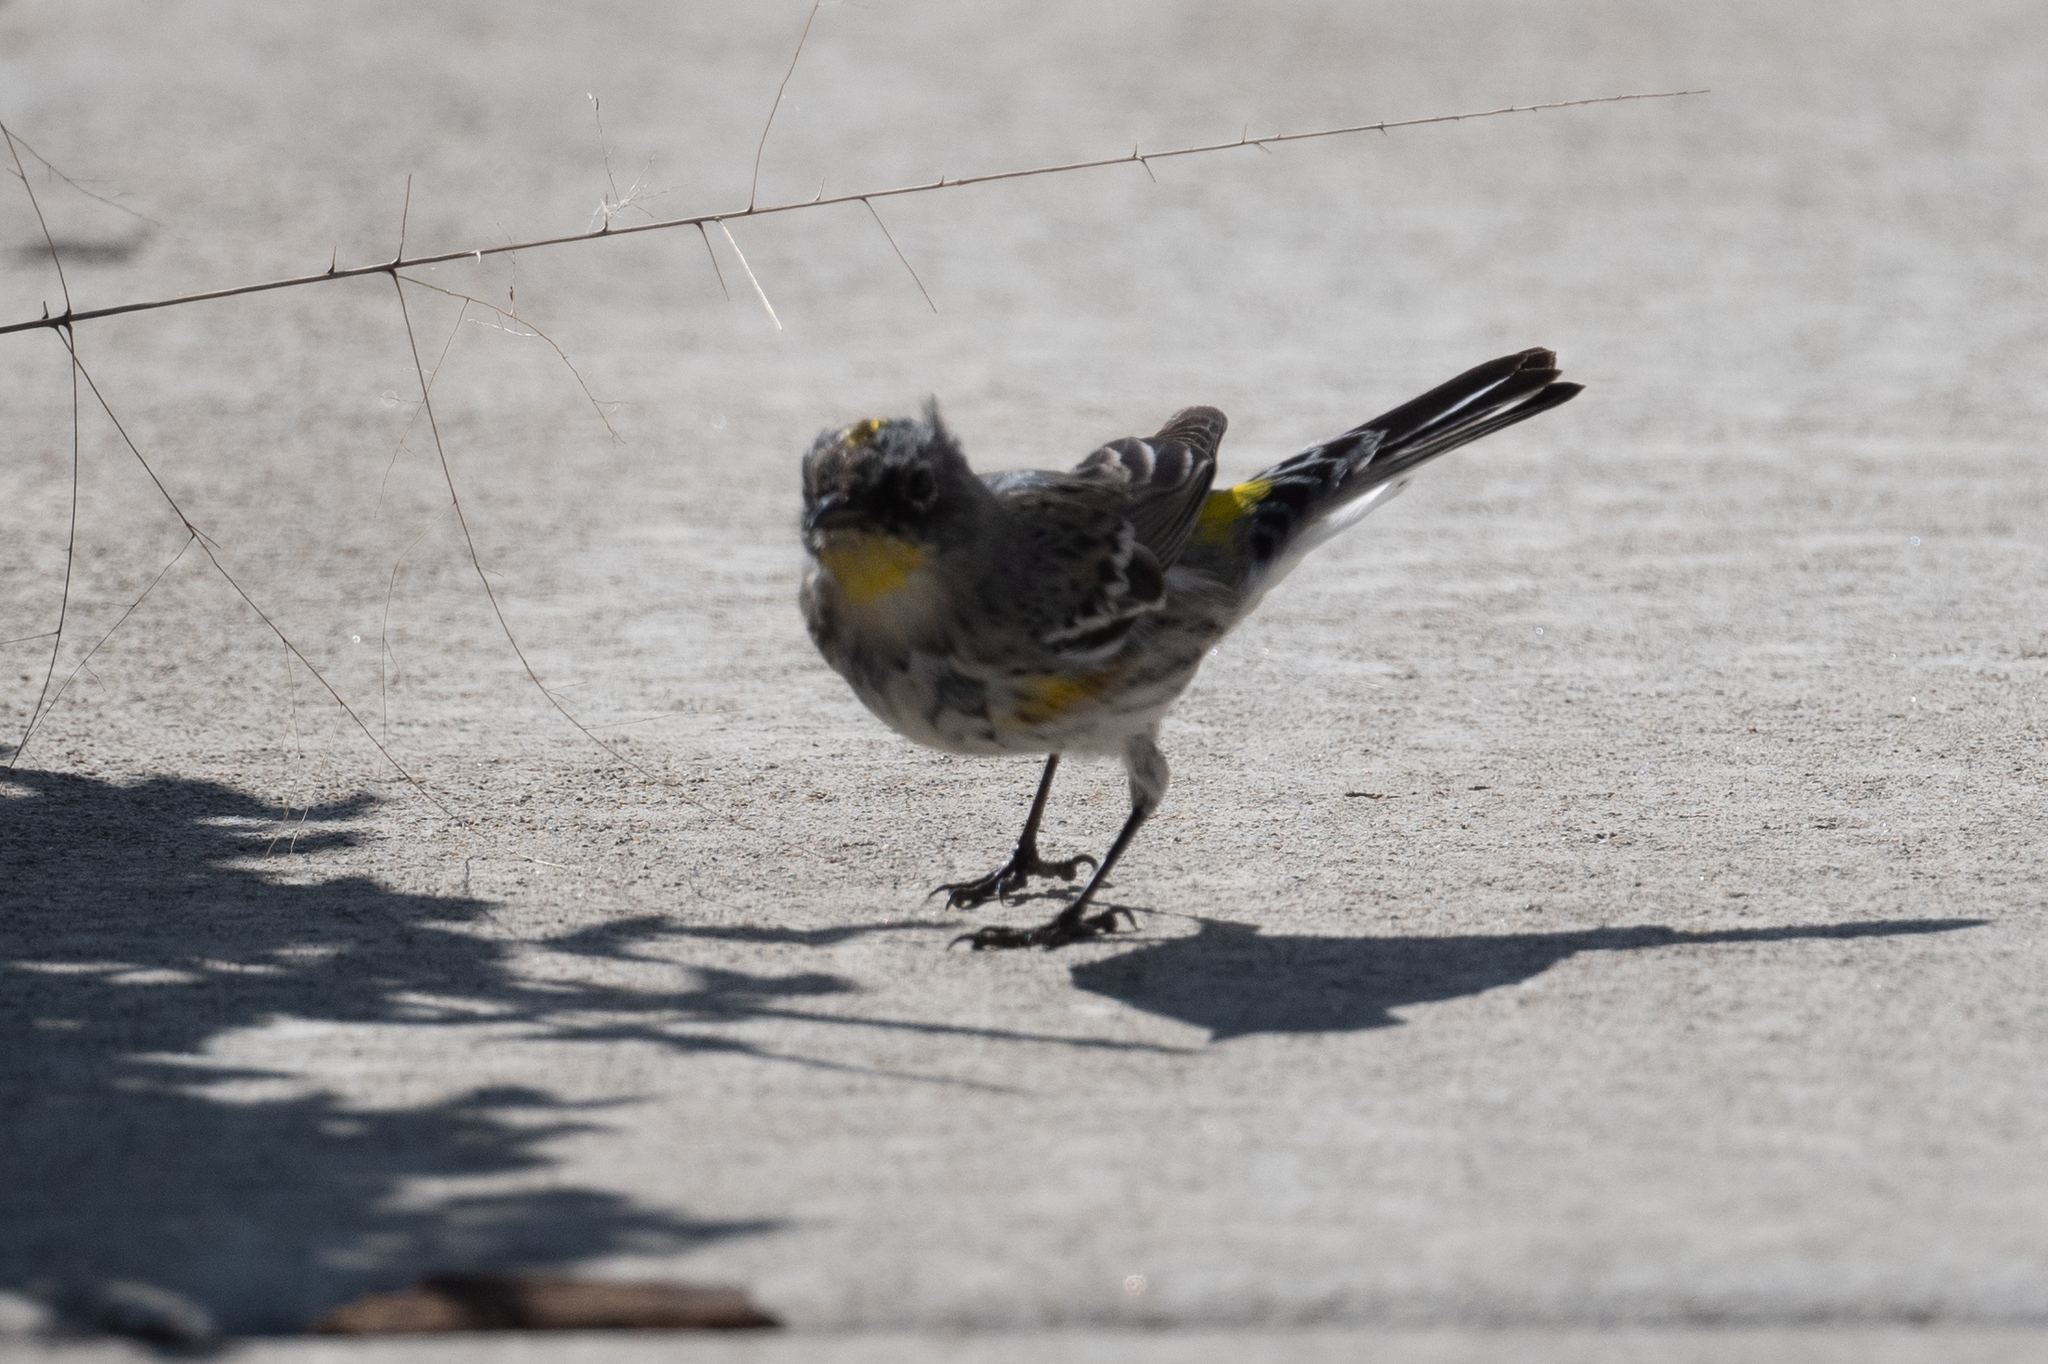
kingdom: Animalia
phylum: Chordata
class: Aves
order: Passeriformes
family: Parulidae
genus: Setophaga
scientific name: Setophaga coronata
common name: Myrtle warbler
